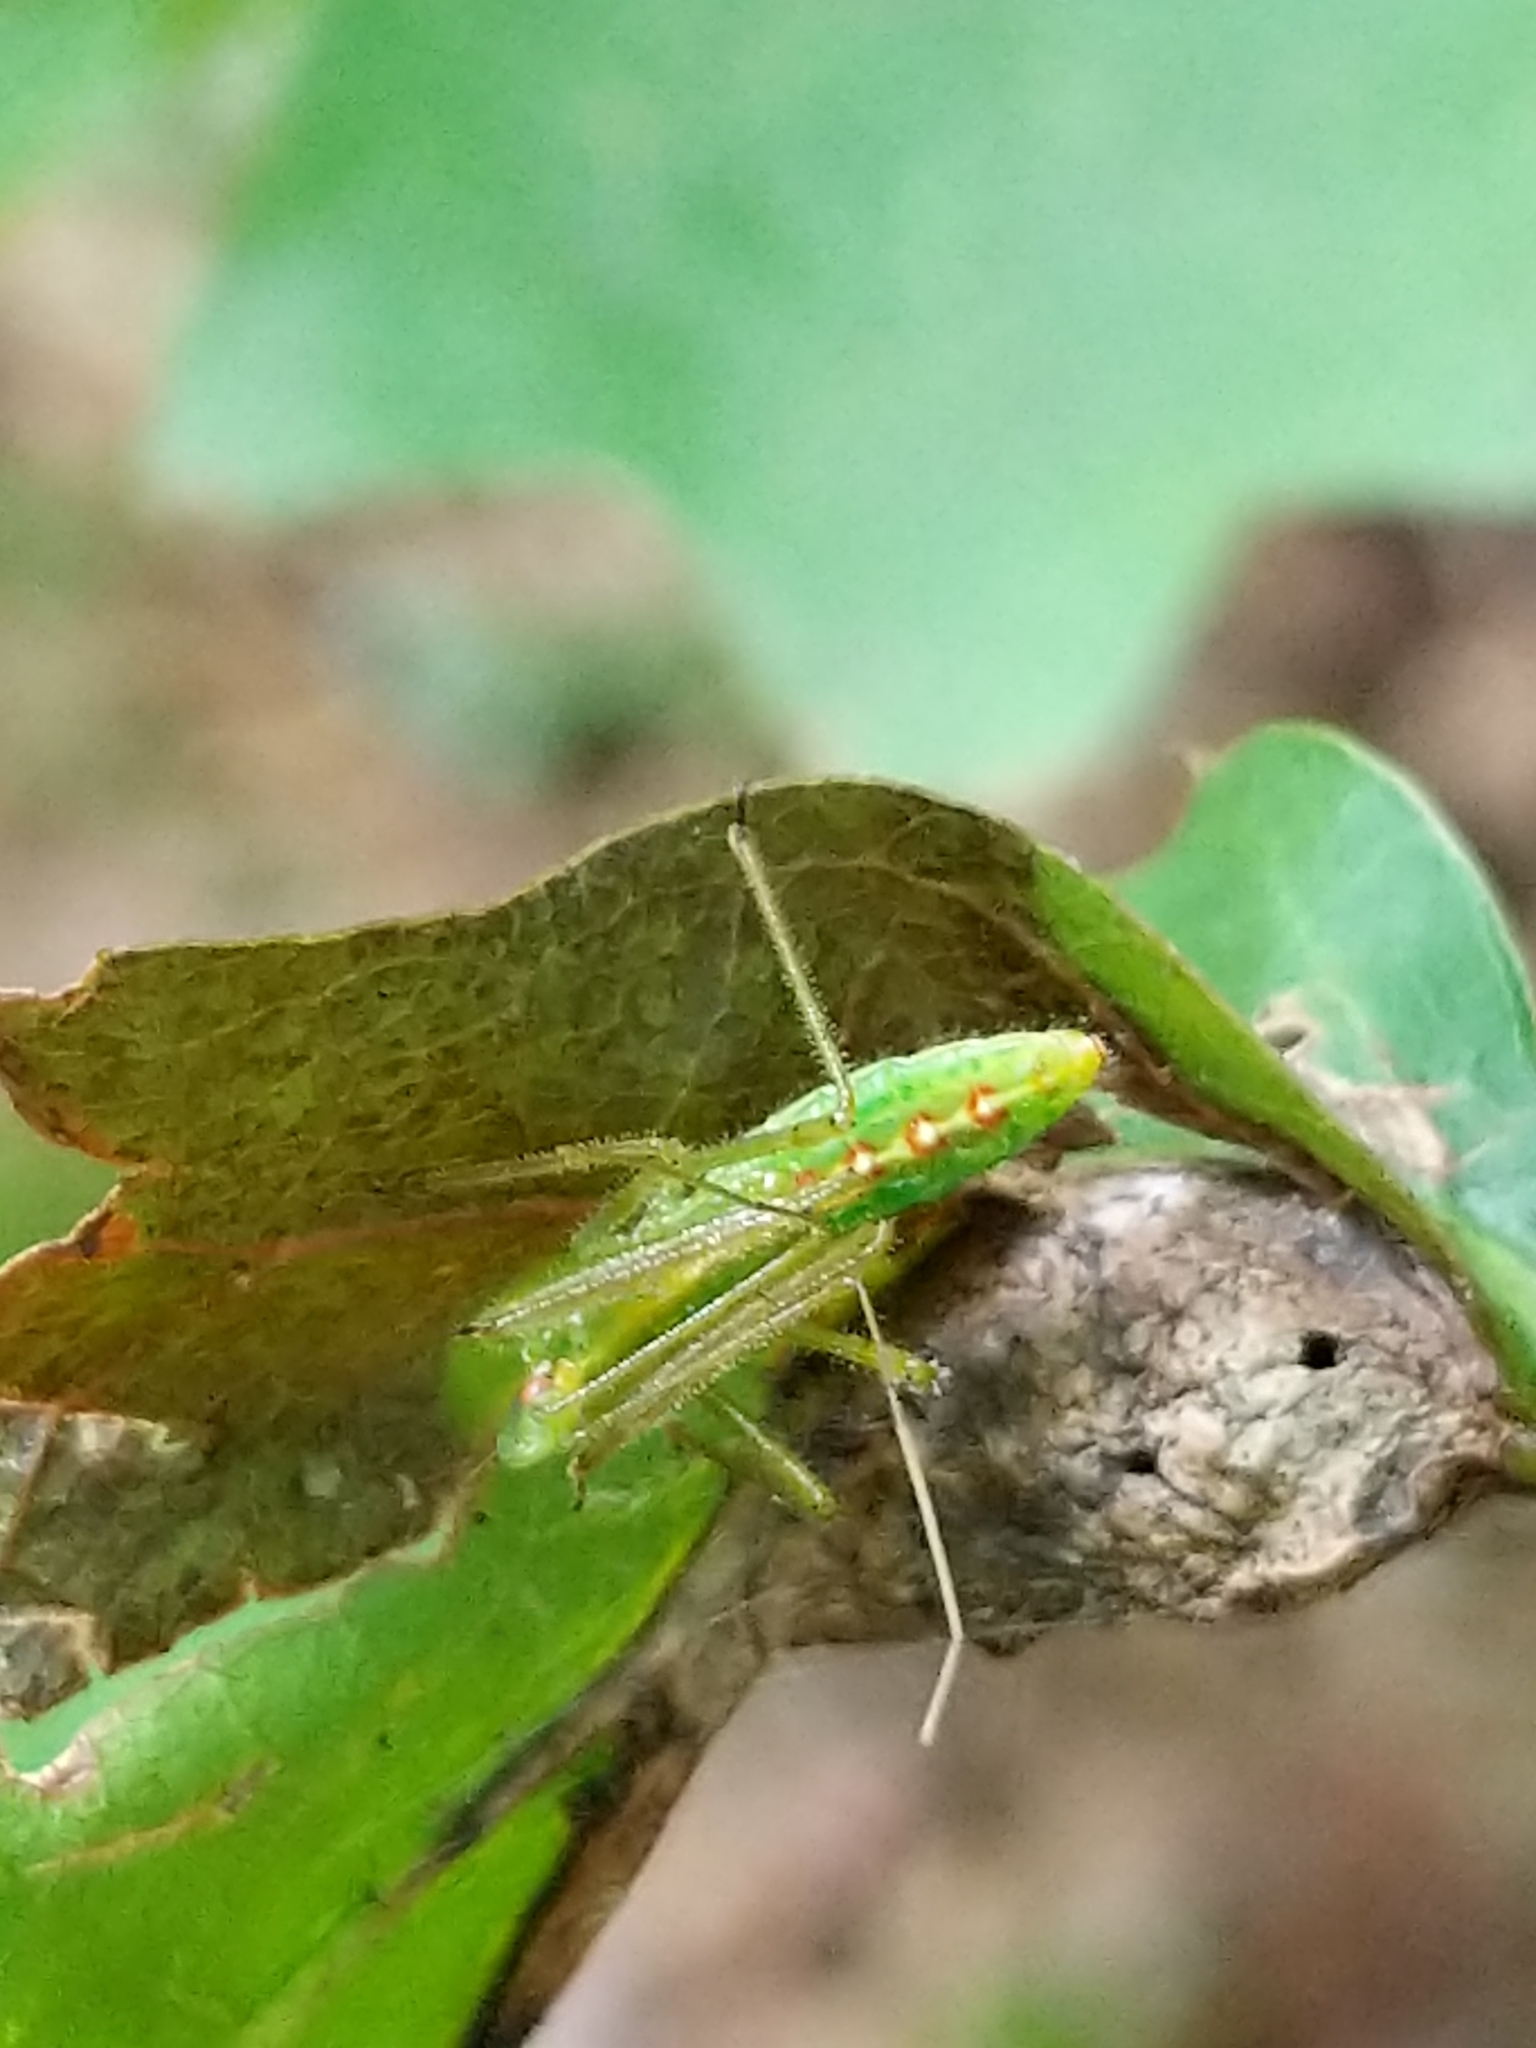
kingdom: Animalia
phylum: Arthropoda
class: Insecta
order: Hemiptera
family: Reduviidae
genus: Zelus
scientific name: Zelus luridus
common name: Pale green assassin bug
